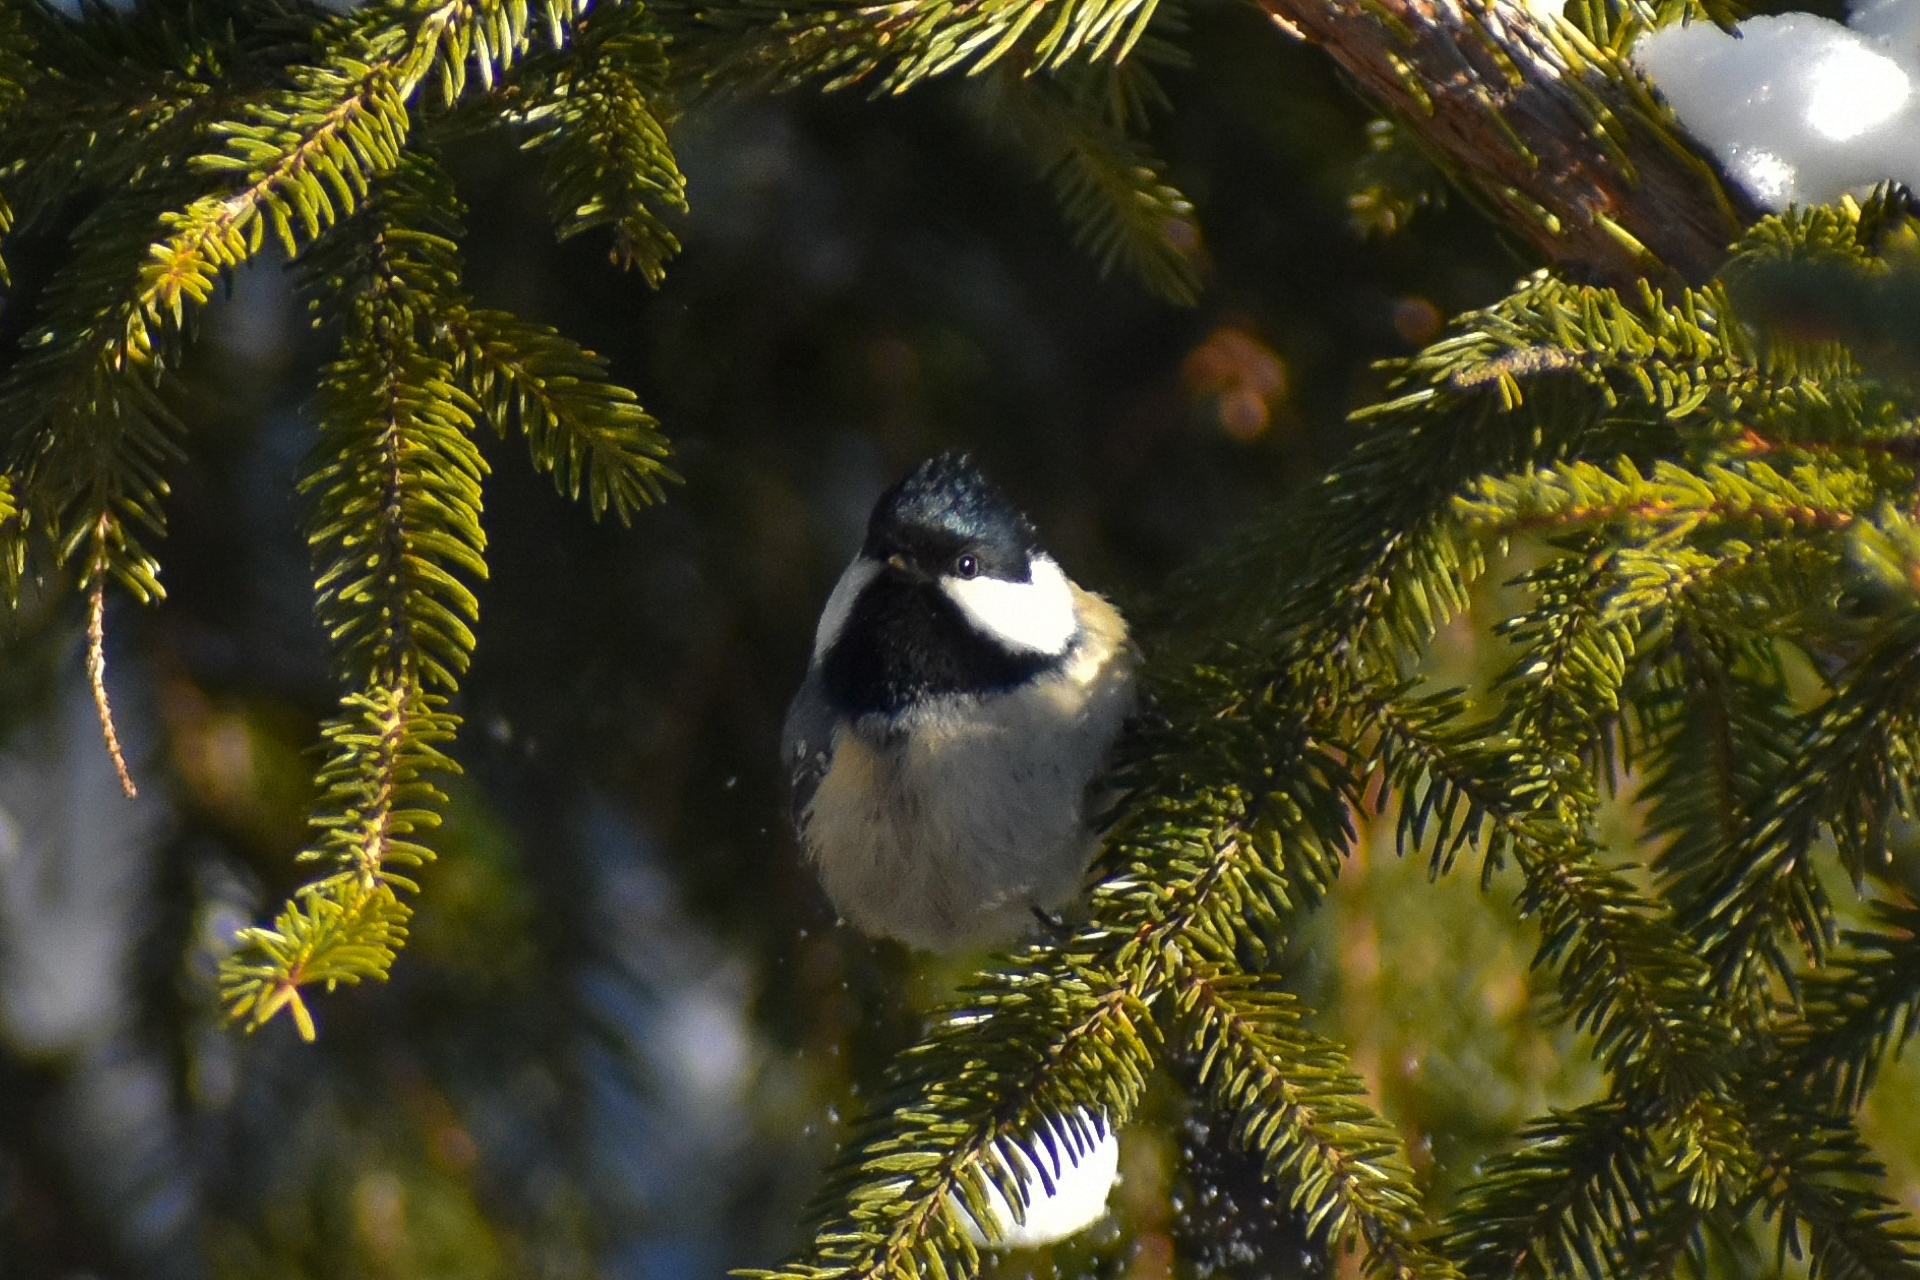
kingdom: Animalia
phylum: Chordata
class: Aves
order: Passeriformes
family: Paridae
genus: Periparus
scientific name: Periparus ater
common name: Coal tit
